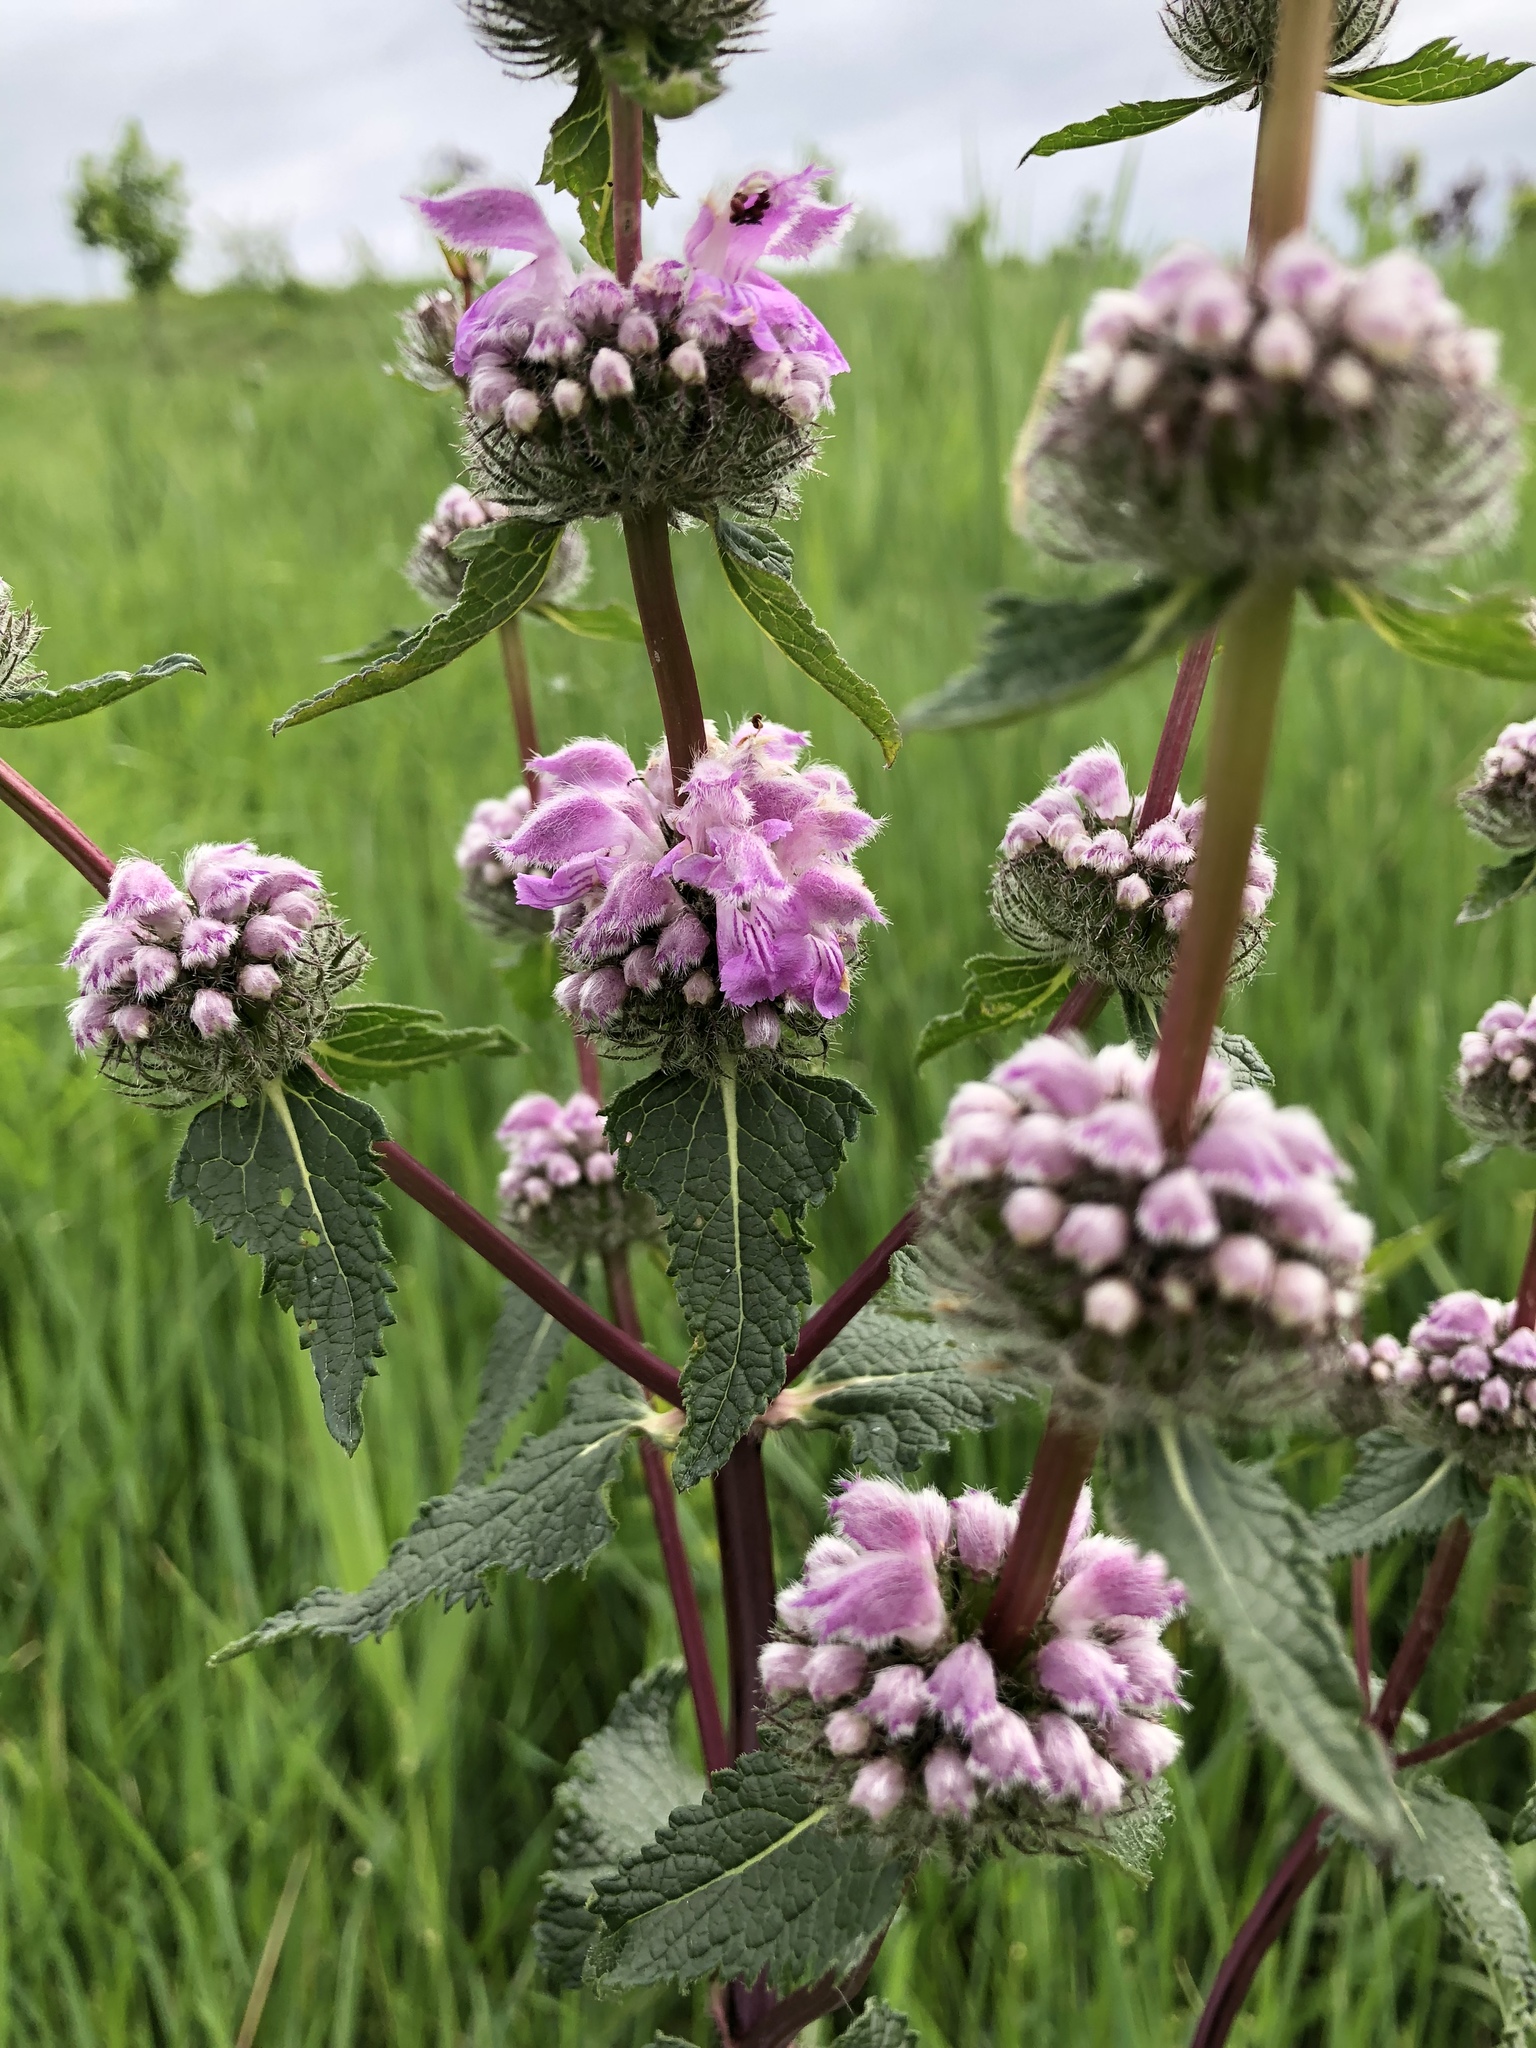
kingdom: Plantae
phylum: Tracheophyta
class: Magnoliopsida
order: Lamiales
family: Lamiaceae
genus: Phlomoides
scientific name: Phlomoides tuberosa
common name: Tuberous jerusalem sage
